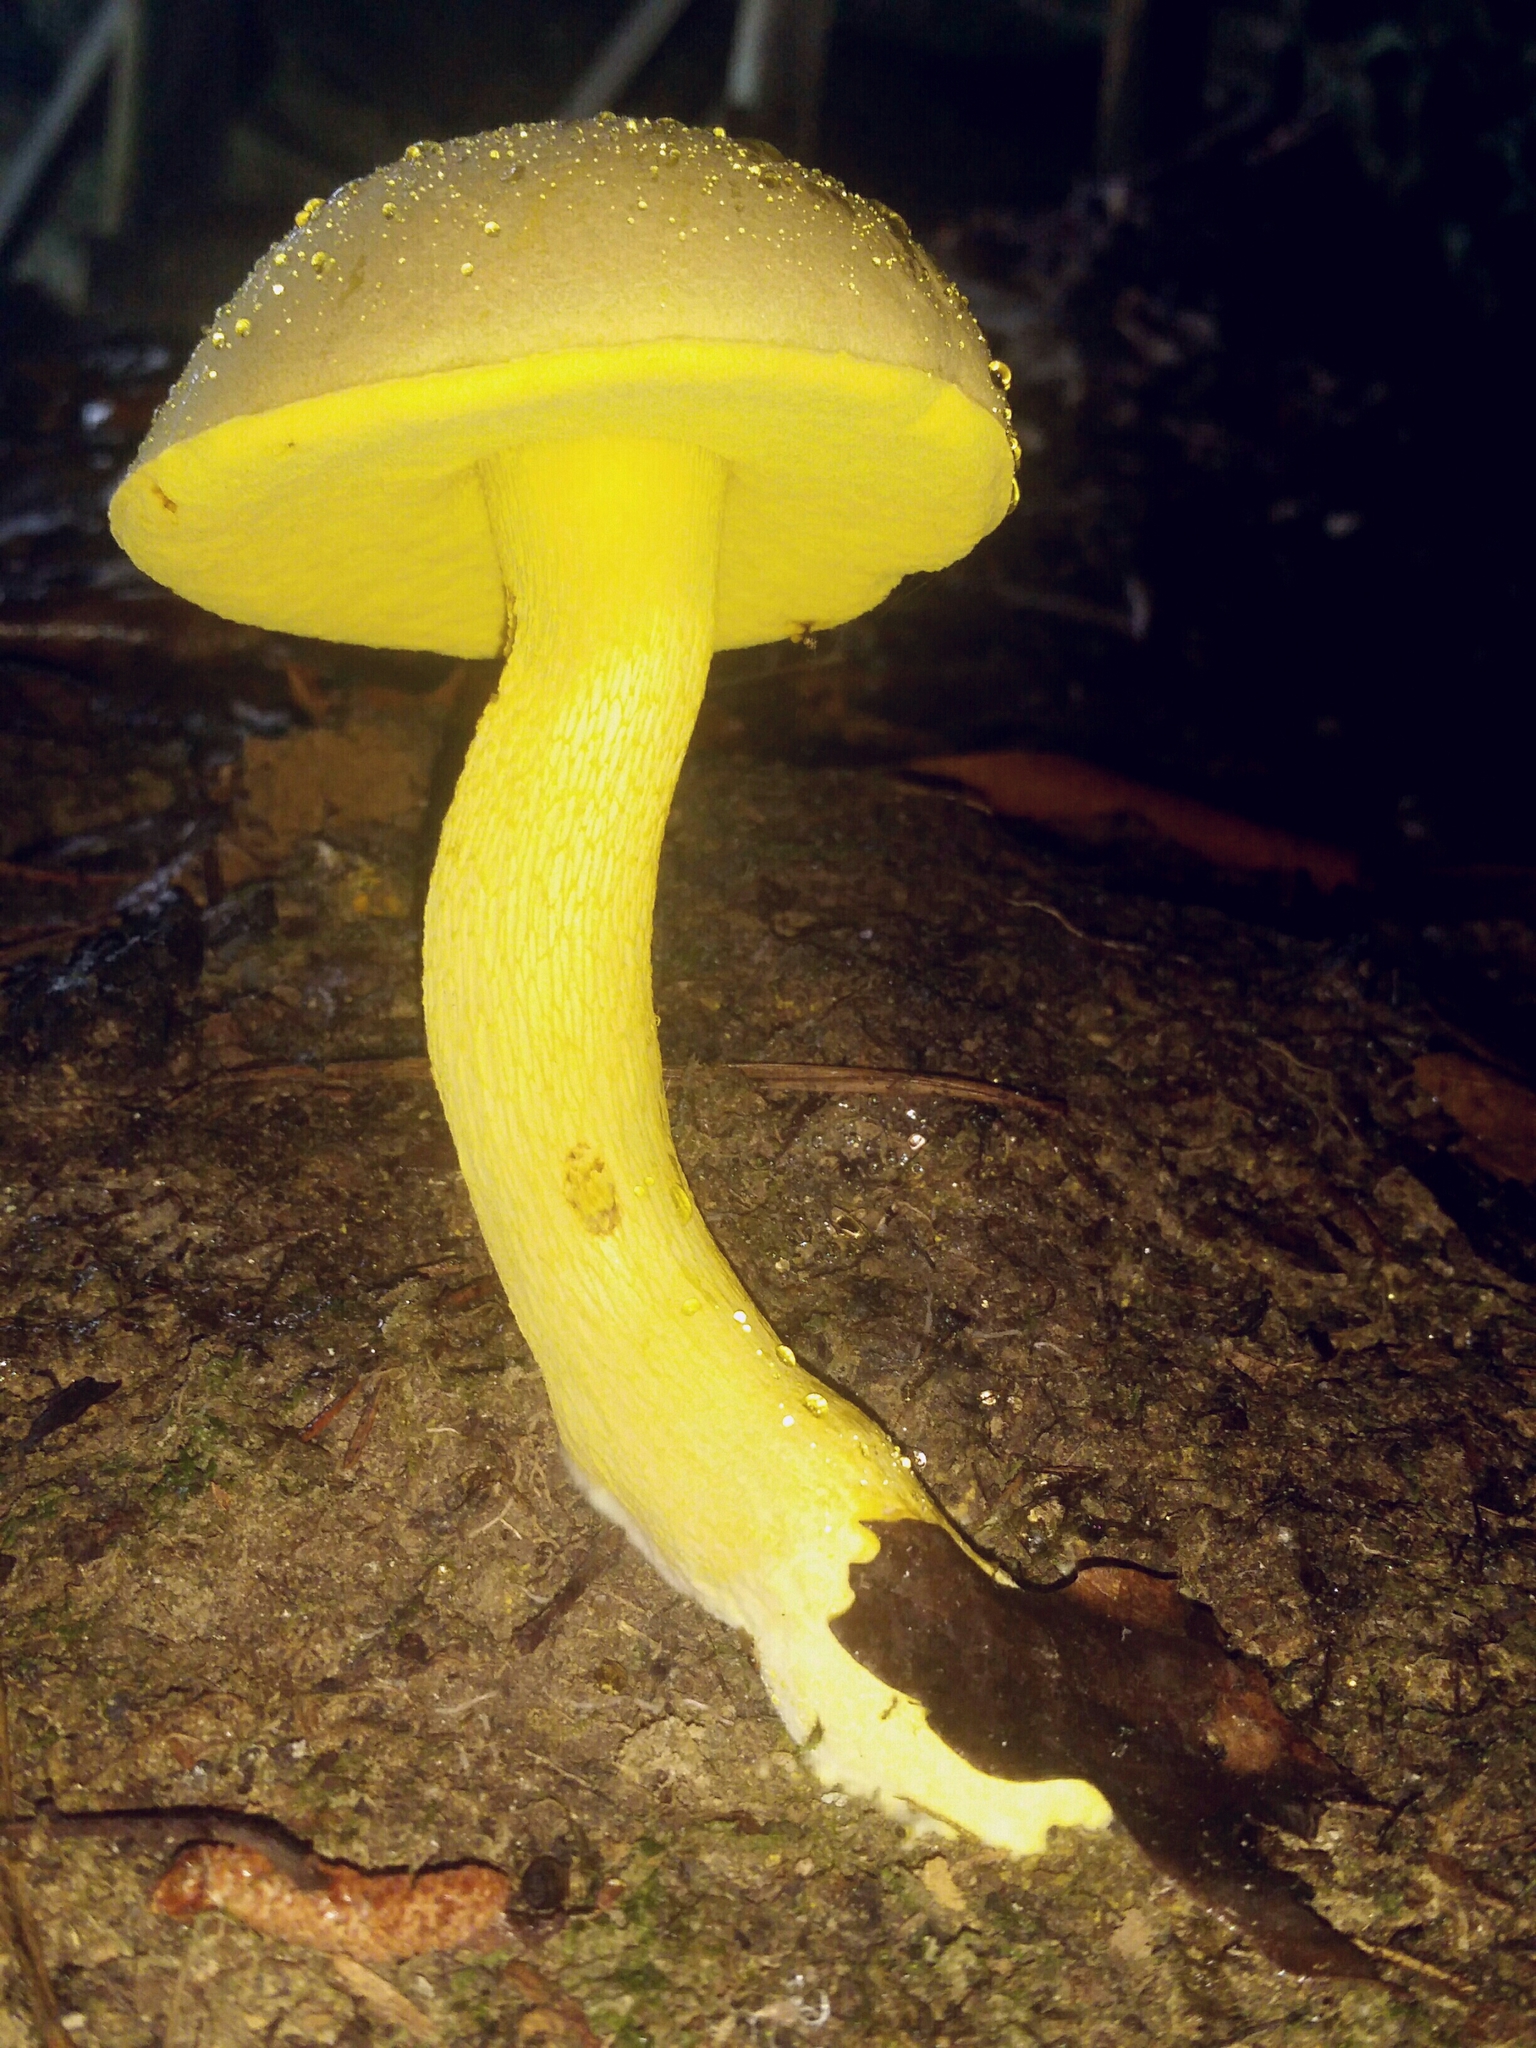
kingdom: Fungi
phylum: Basidiomycota
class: Agaricomycetes
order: Boletales
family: Boletaceae
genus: Retiboletus
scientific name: Retiboletus ornatipes
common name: Ornate-stalked bolete
